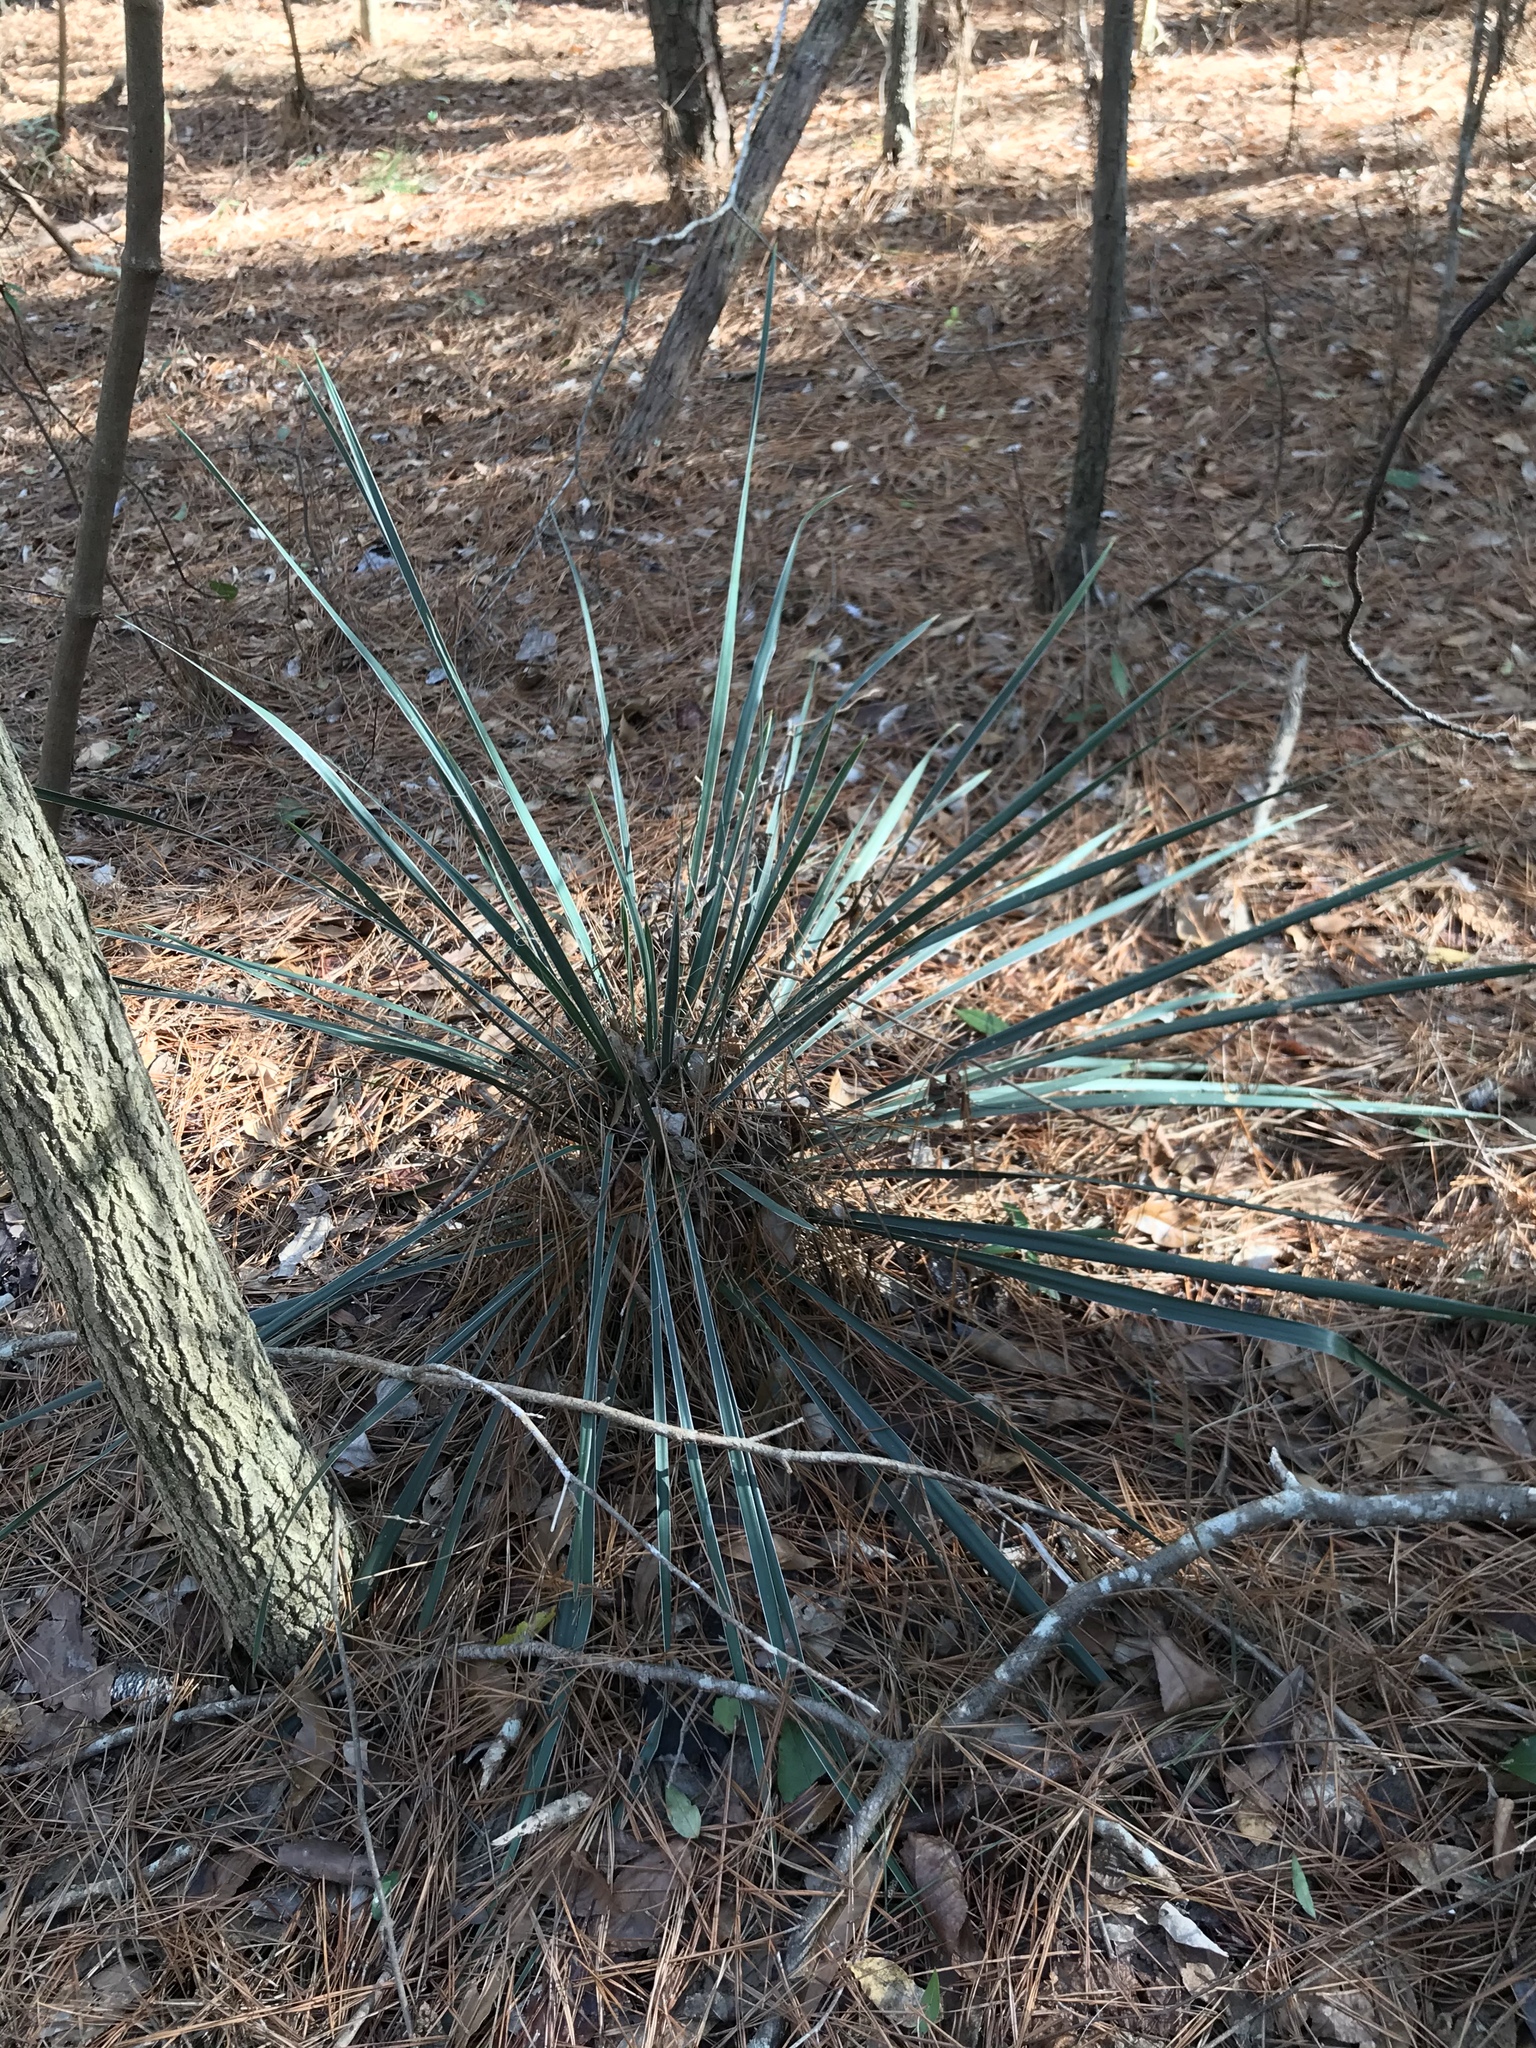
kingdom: Plantae
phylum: Tracheophyta
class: Liliopsida
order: Asparagales
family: Asparagaceae
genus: Yucca
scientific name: Yucca flaccida
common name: Adam's-needle
